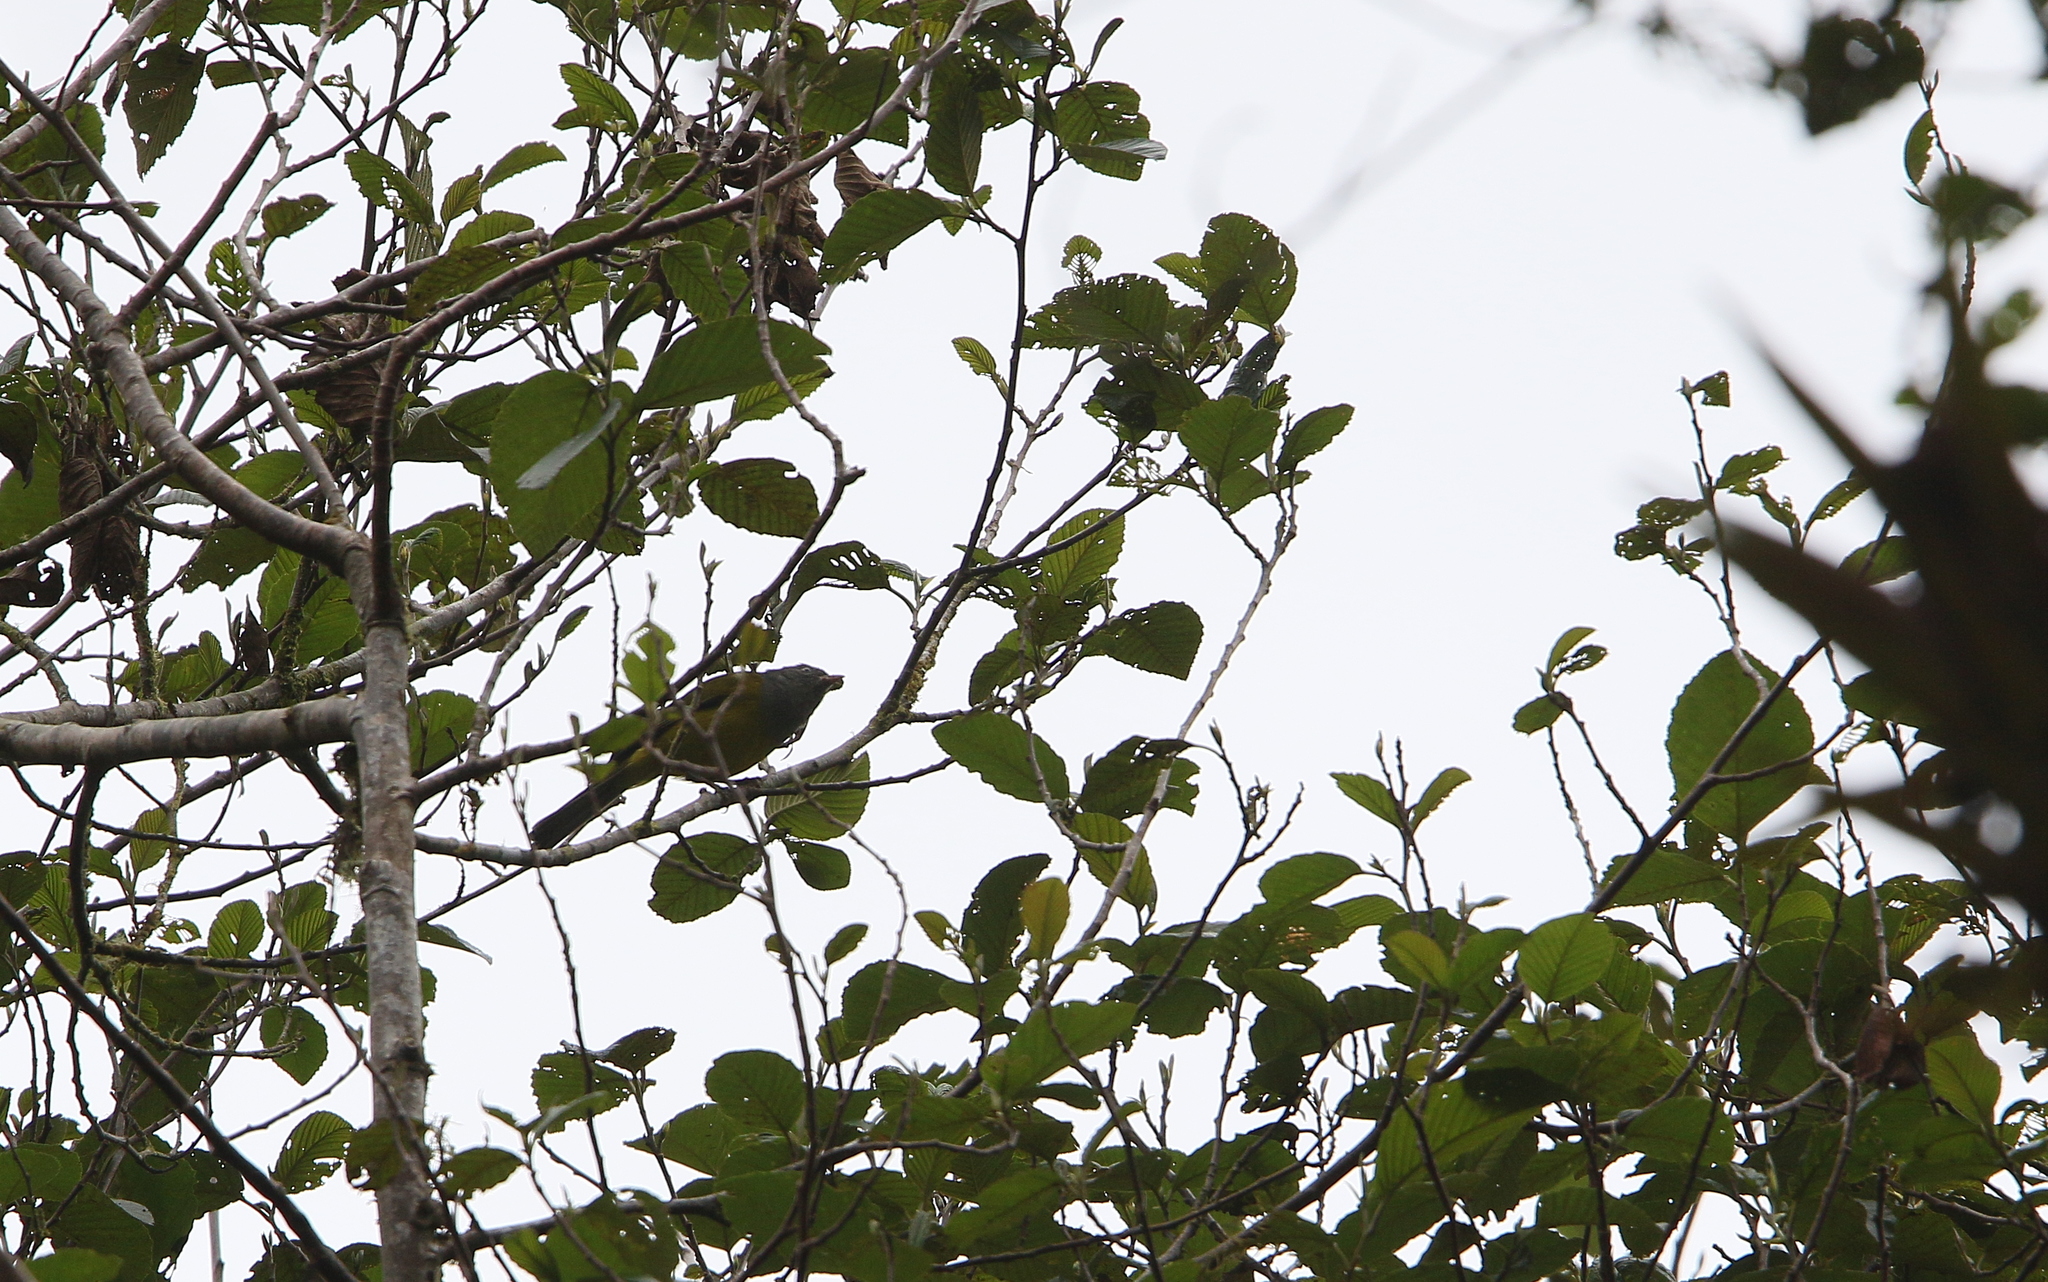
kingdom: Animalia
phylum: Chordata
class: Aves
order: Passeriformes
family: Thraupidae
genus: Cnemoscopus
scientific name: Cnemoscopus rubrirostris
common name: Grey-hooded bush tanager
